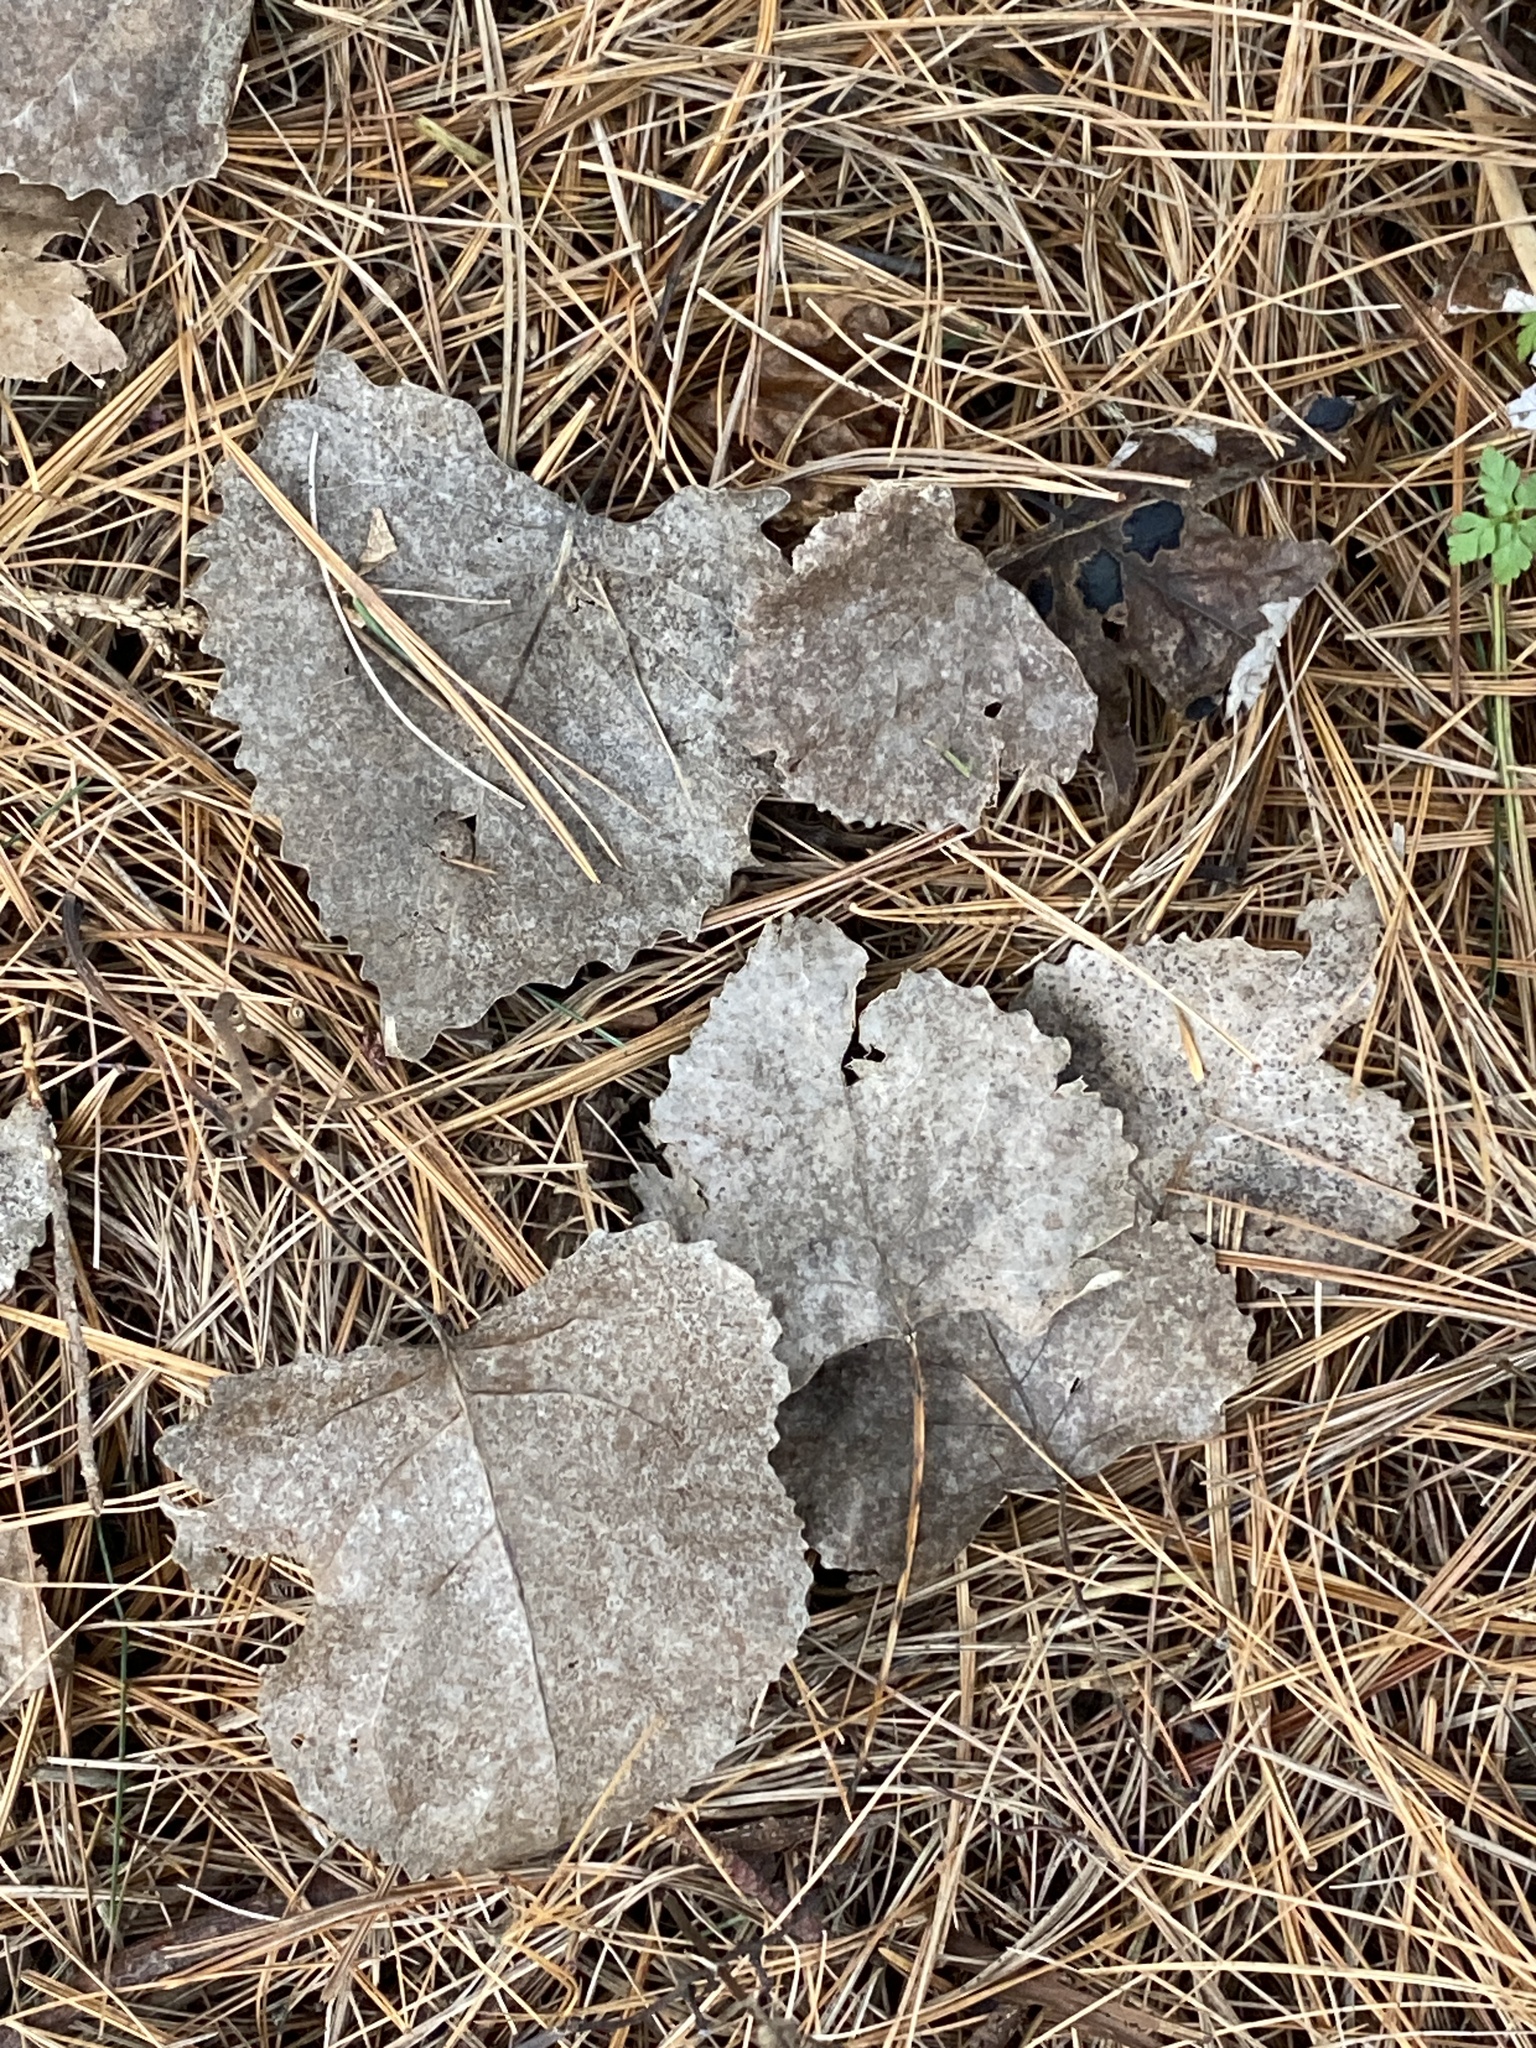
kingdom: Plantae
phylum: Tracheophyta
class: Magnoliopsida
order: Malpighiales
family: Salicaceae
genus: Populus
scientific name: Populus deltoides
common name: Eastern cottonwood
